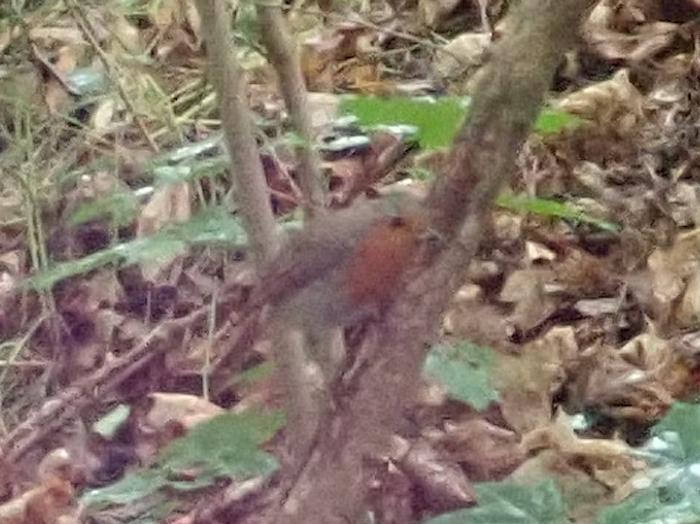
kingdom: Animalia
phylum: Chordata
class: Aves
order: Passeriformes
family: Muscicapidae
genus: Erithacus
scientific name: Erithacus rubecula
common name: European robin
